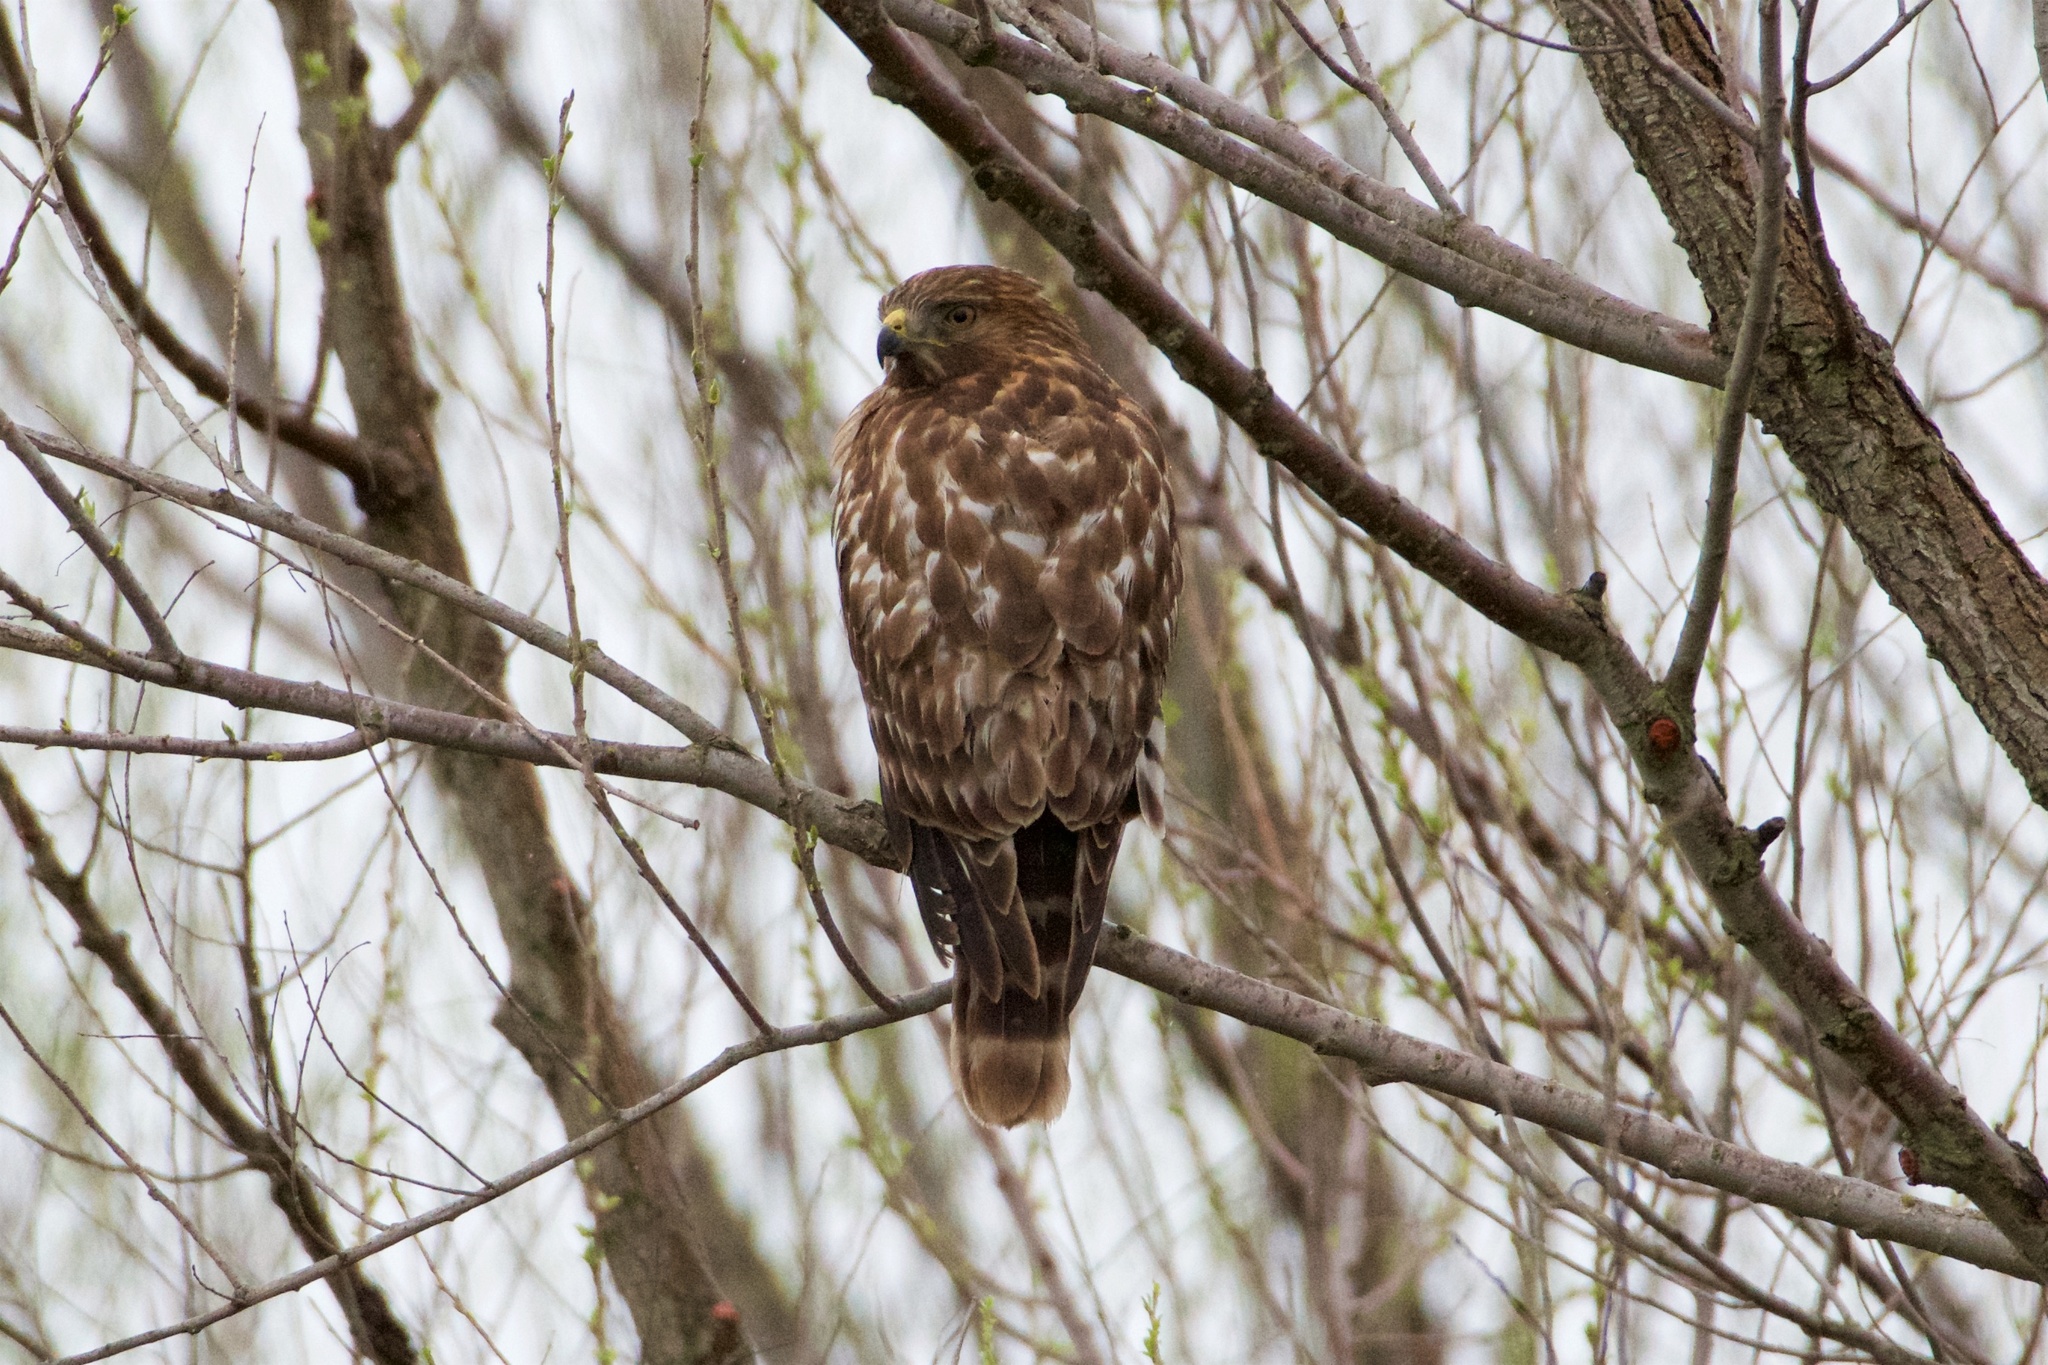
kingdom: Animalia
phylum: Chordata
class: Aves
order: Accipitriformes
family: Accipitridae
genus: Buteo
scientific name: Buteo lineatus
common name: Red-shouldered hawk
